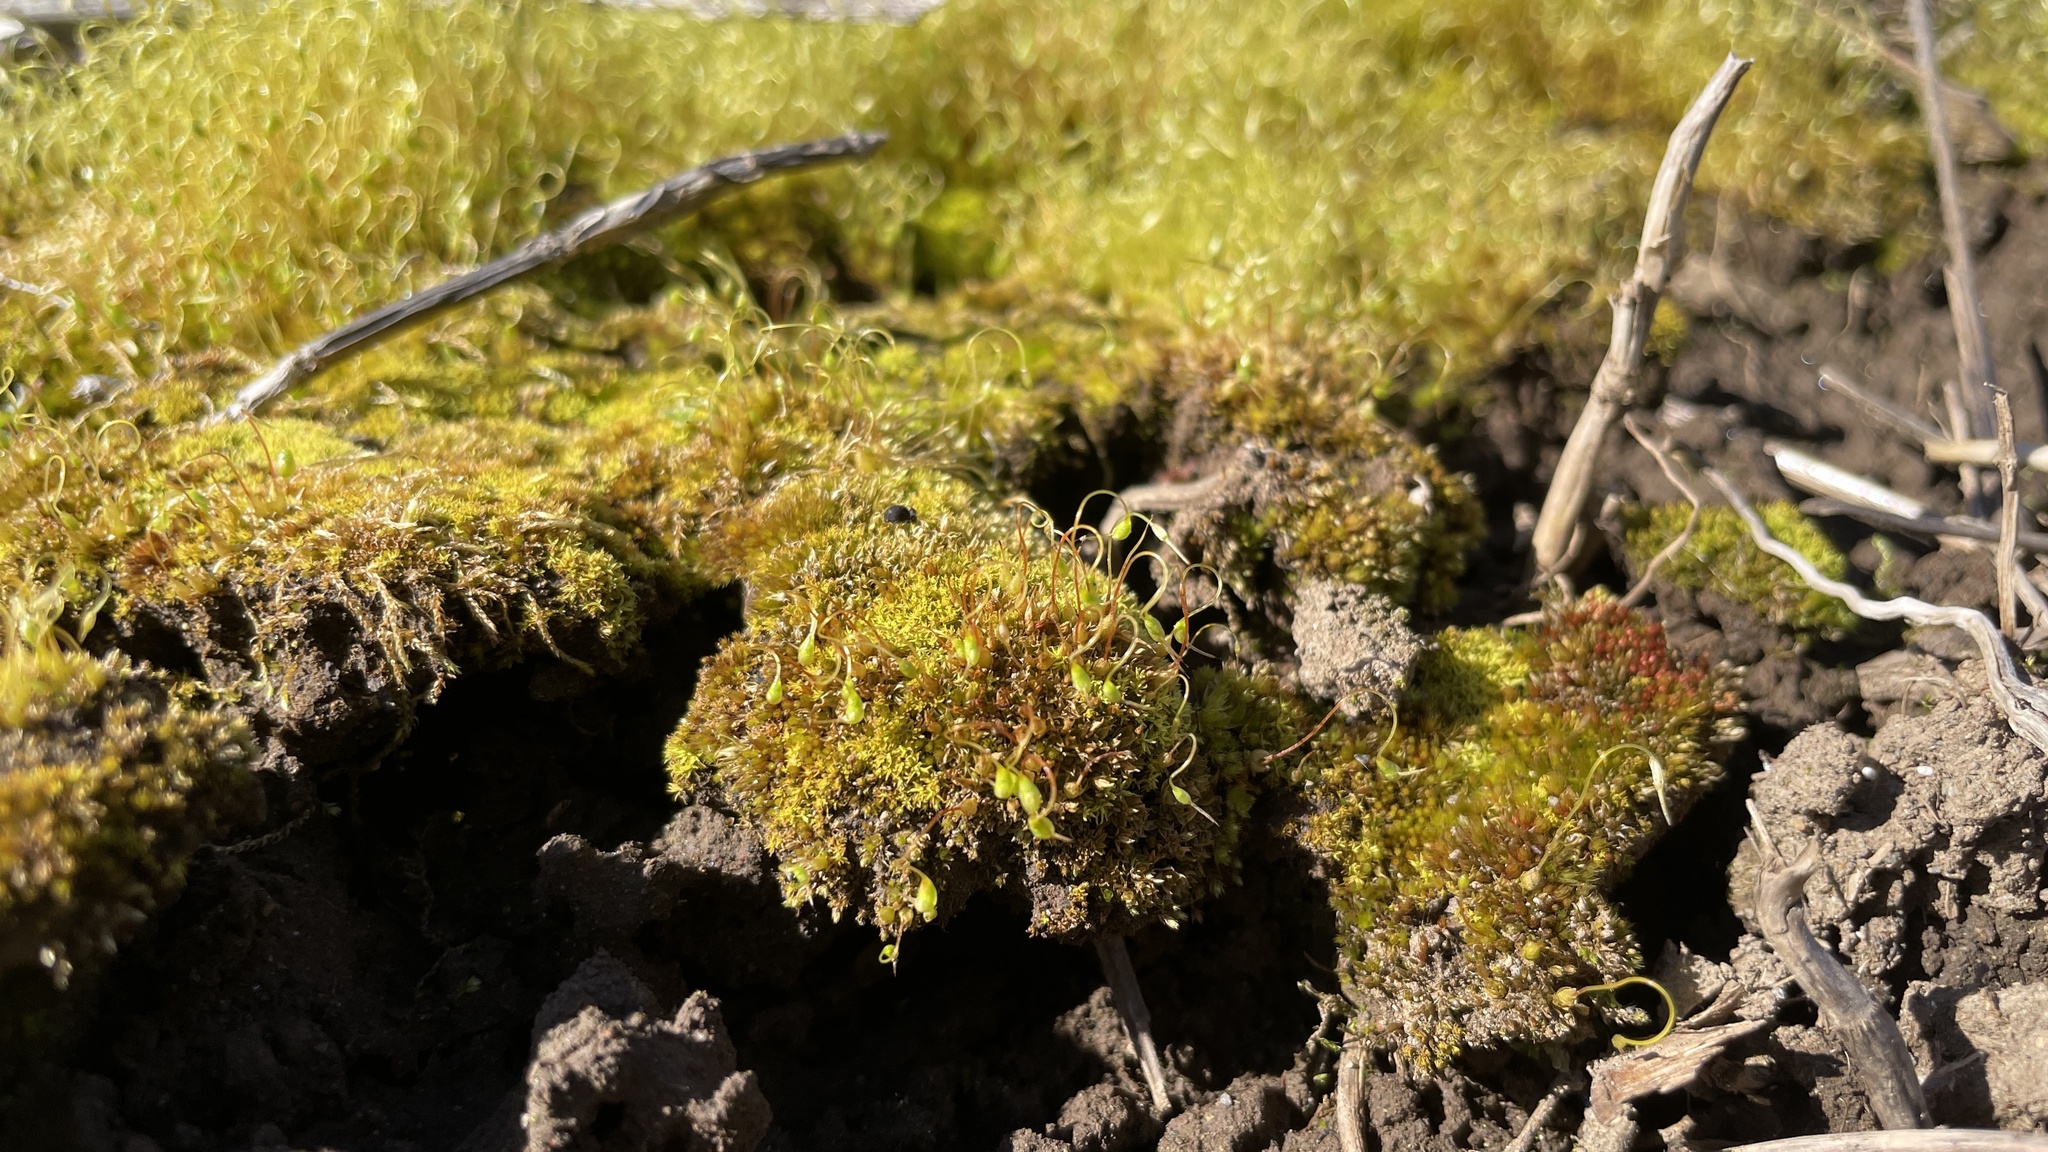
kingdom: Plantae
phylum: Bryophyta
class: Bryopsida
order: Funariales
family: Funariaceae
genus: Funaria
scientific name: Funaria hygrometrica
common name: Common cord moss
